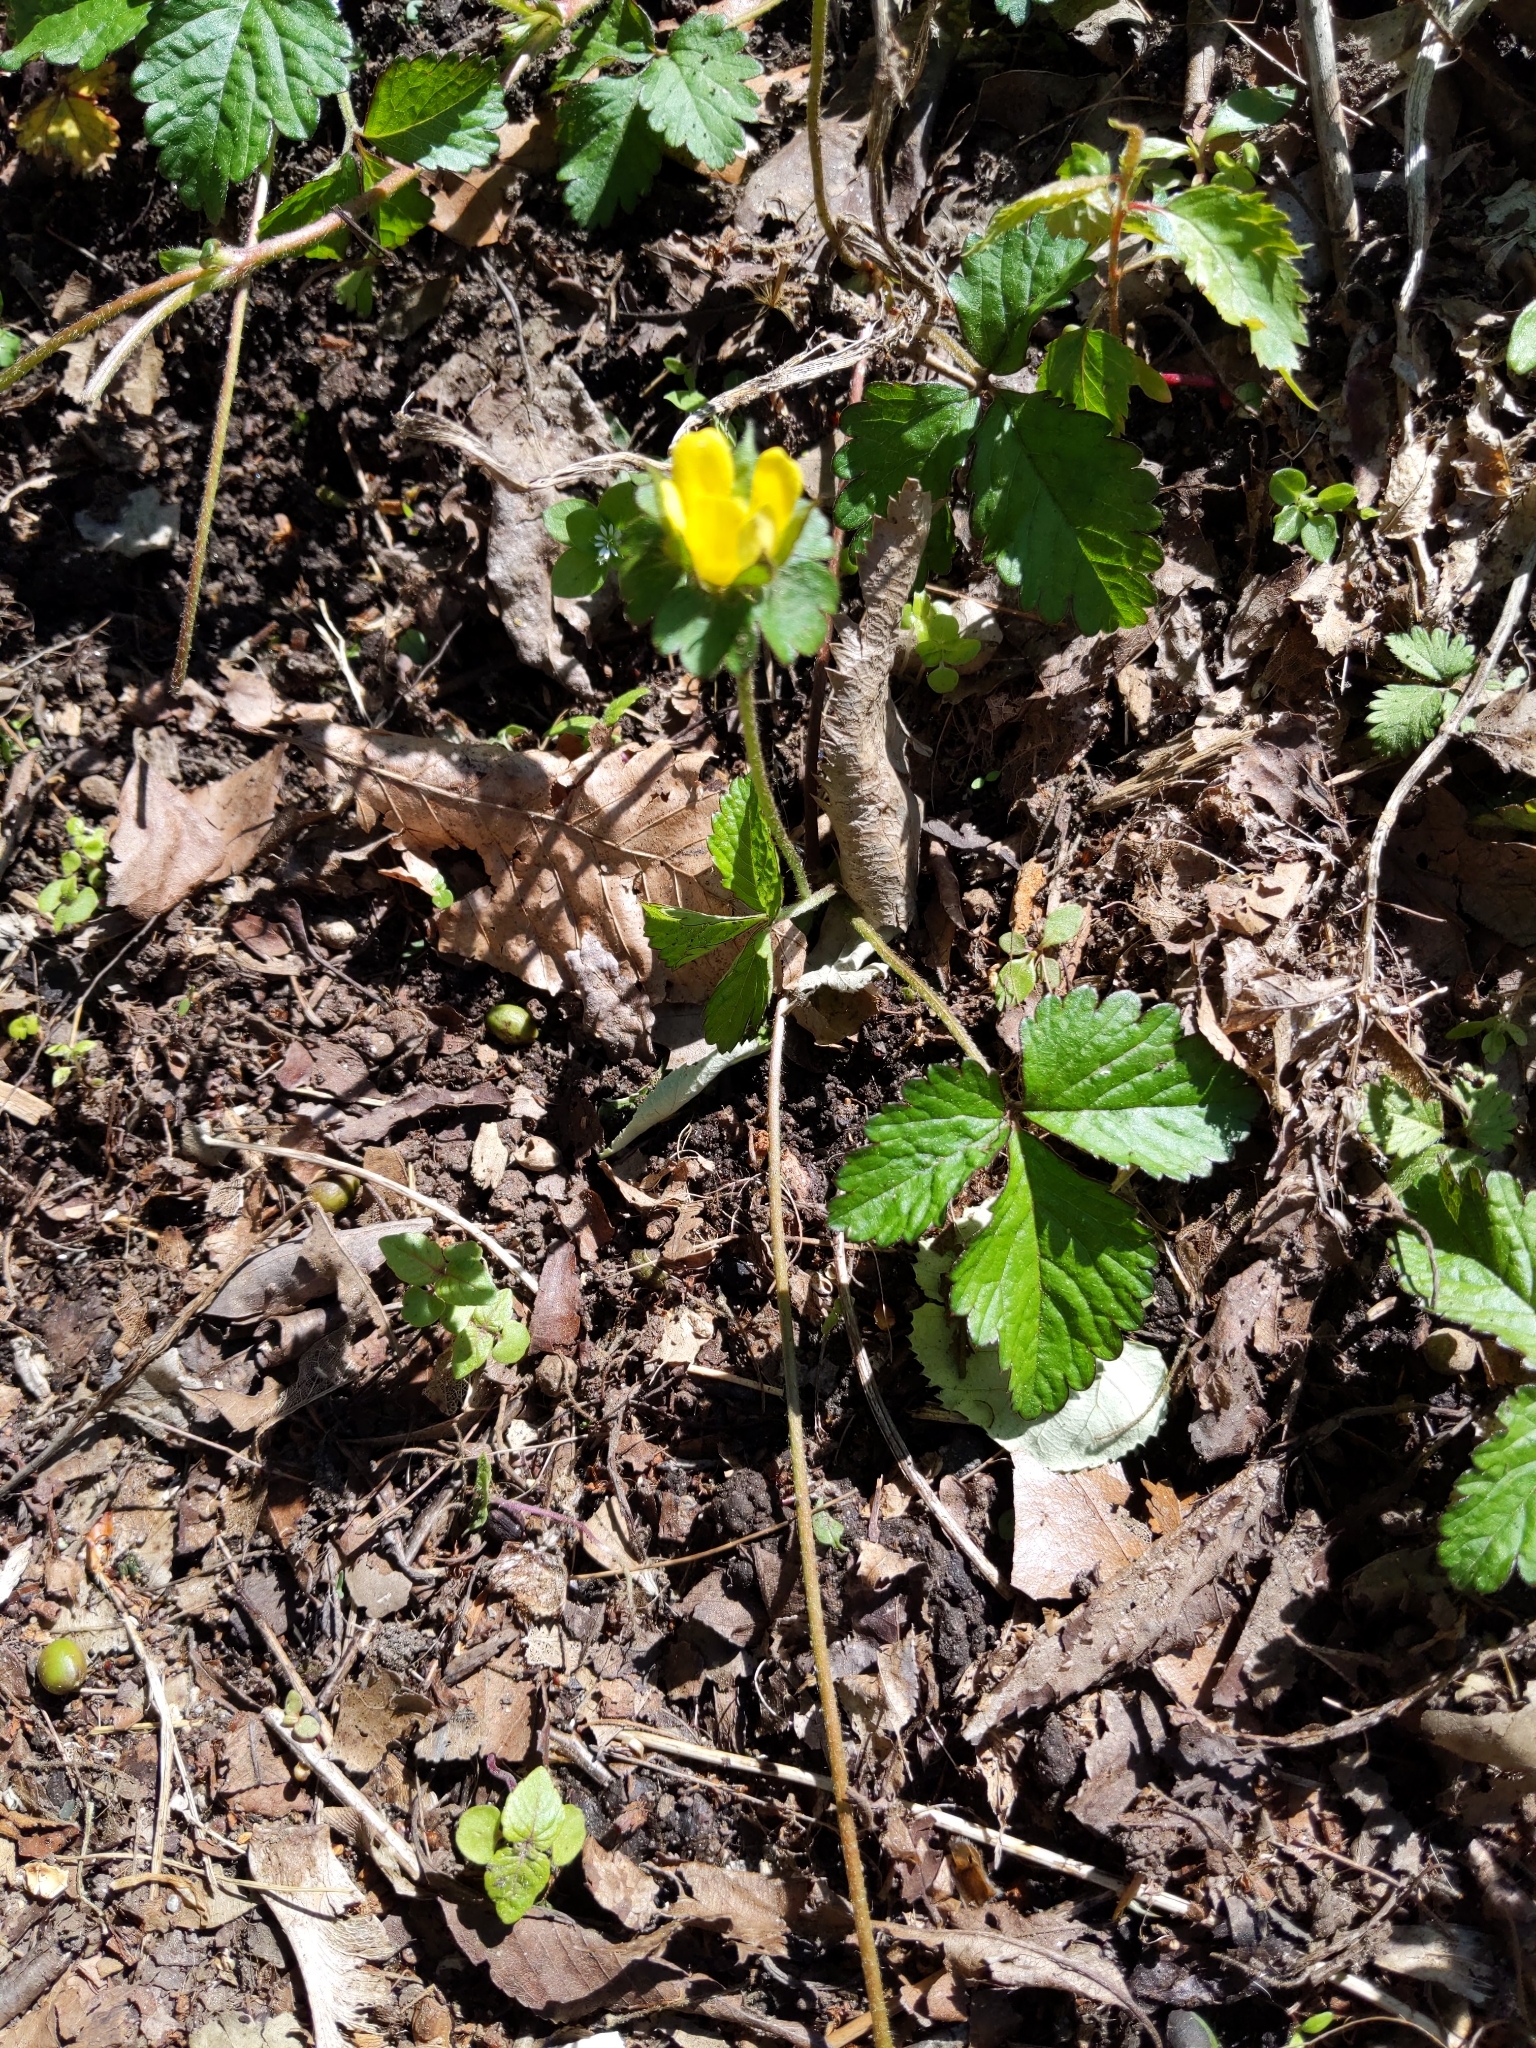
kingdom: Plantae
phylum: Tracheophyta
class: Magnoliopsida
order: Rosales
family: Rosaceae
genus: Potentilla
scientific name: Potentilla indica
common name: Yellow-flowered strawberry
